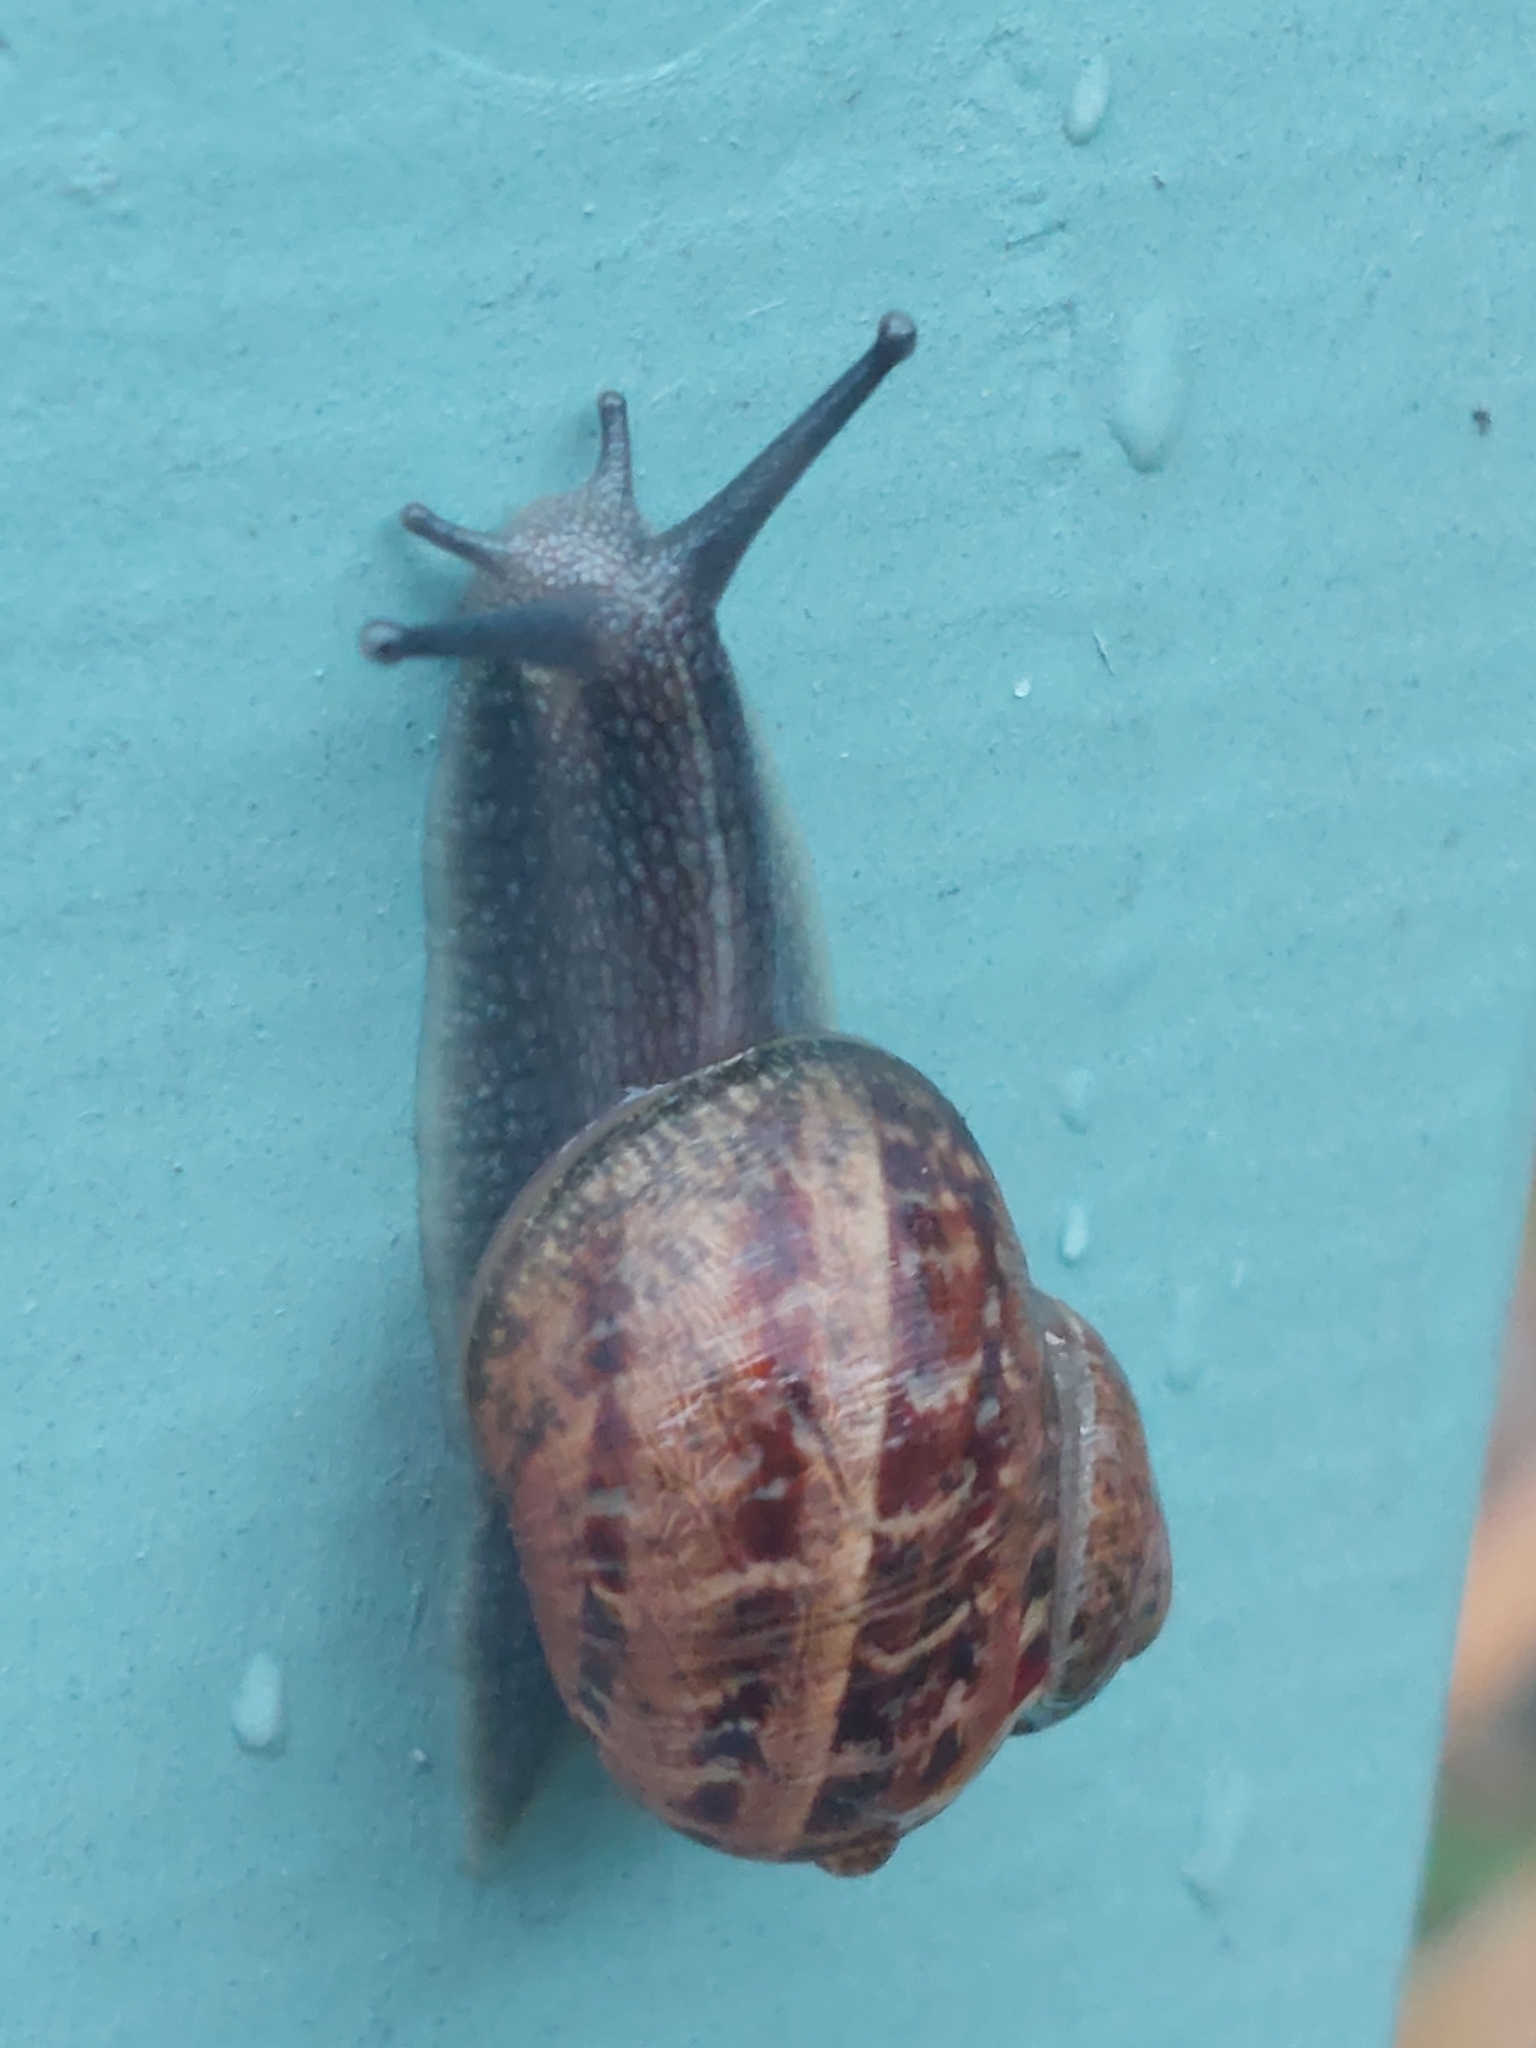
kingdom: Animalia
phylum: Mollusca
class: Gastropoda
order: Stylommatophora
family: Helicidae
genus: Cornu
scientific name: Cornu aspersum
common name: Brown garden snail
